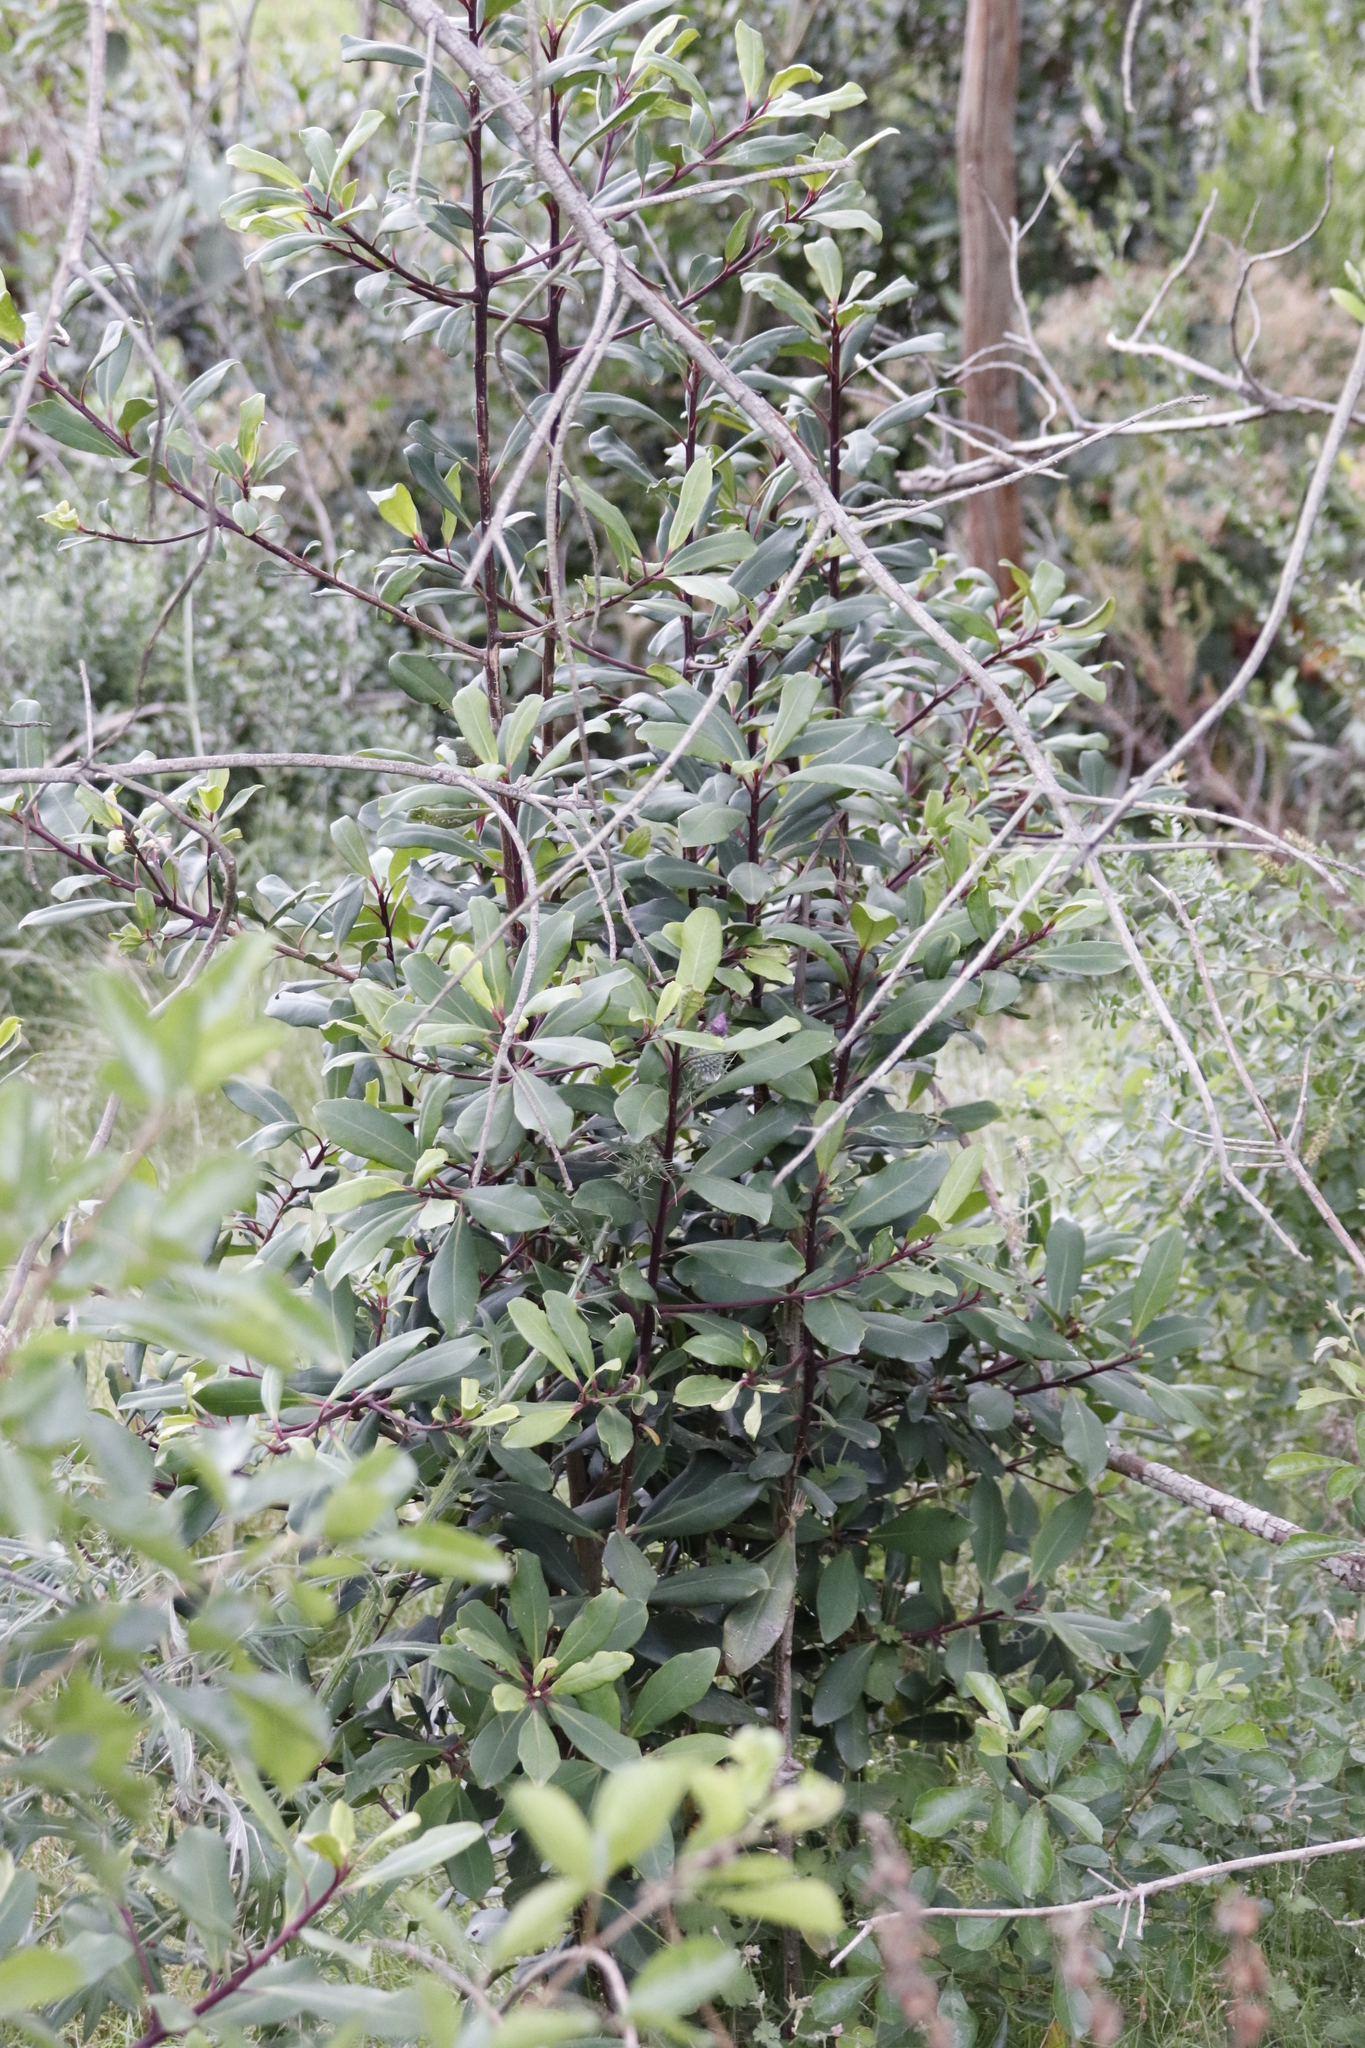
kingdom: Plantae
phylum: Tracheophyta
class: Magnoliopsida
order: Ericales
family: Primulaceae
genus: Myrsine
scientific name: Myrsine melanophloeos
